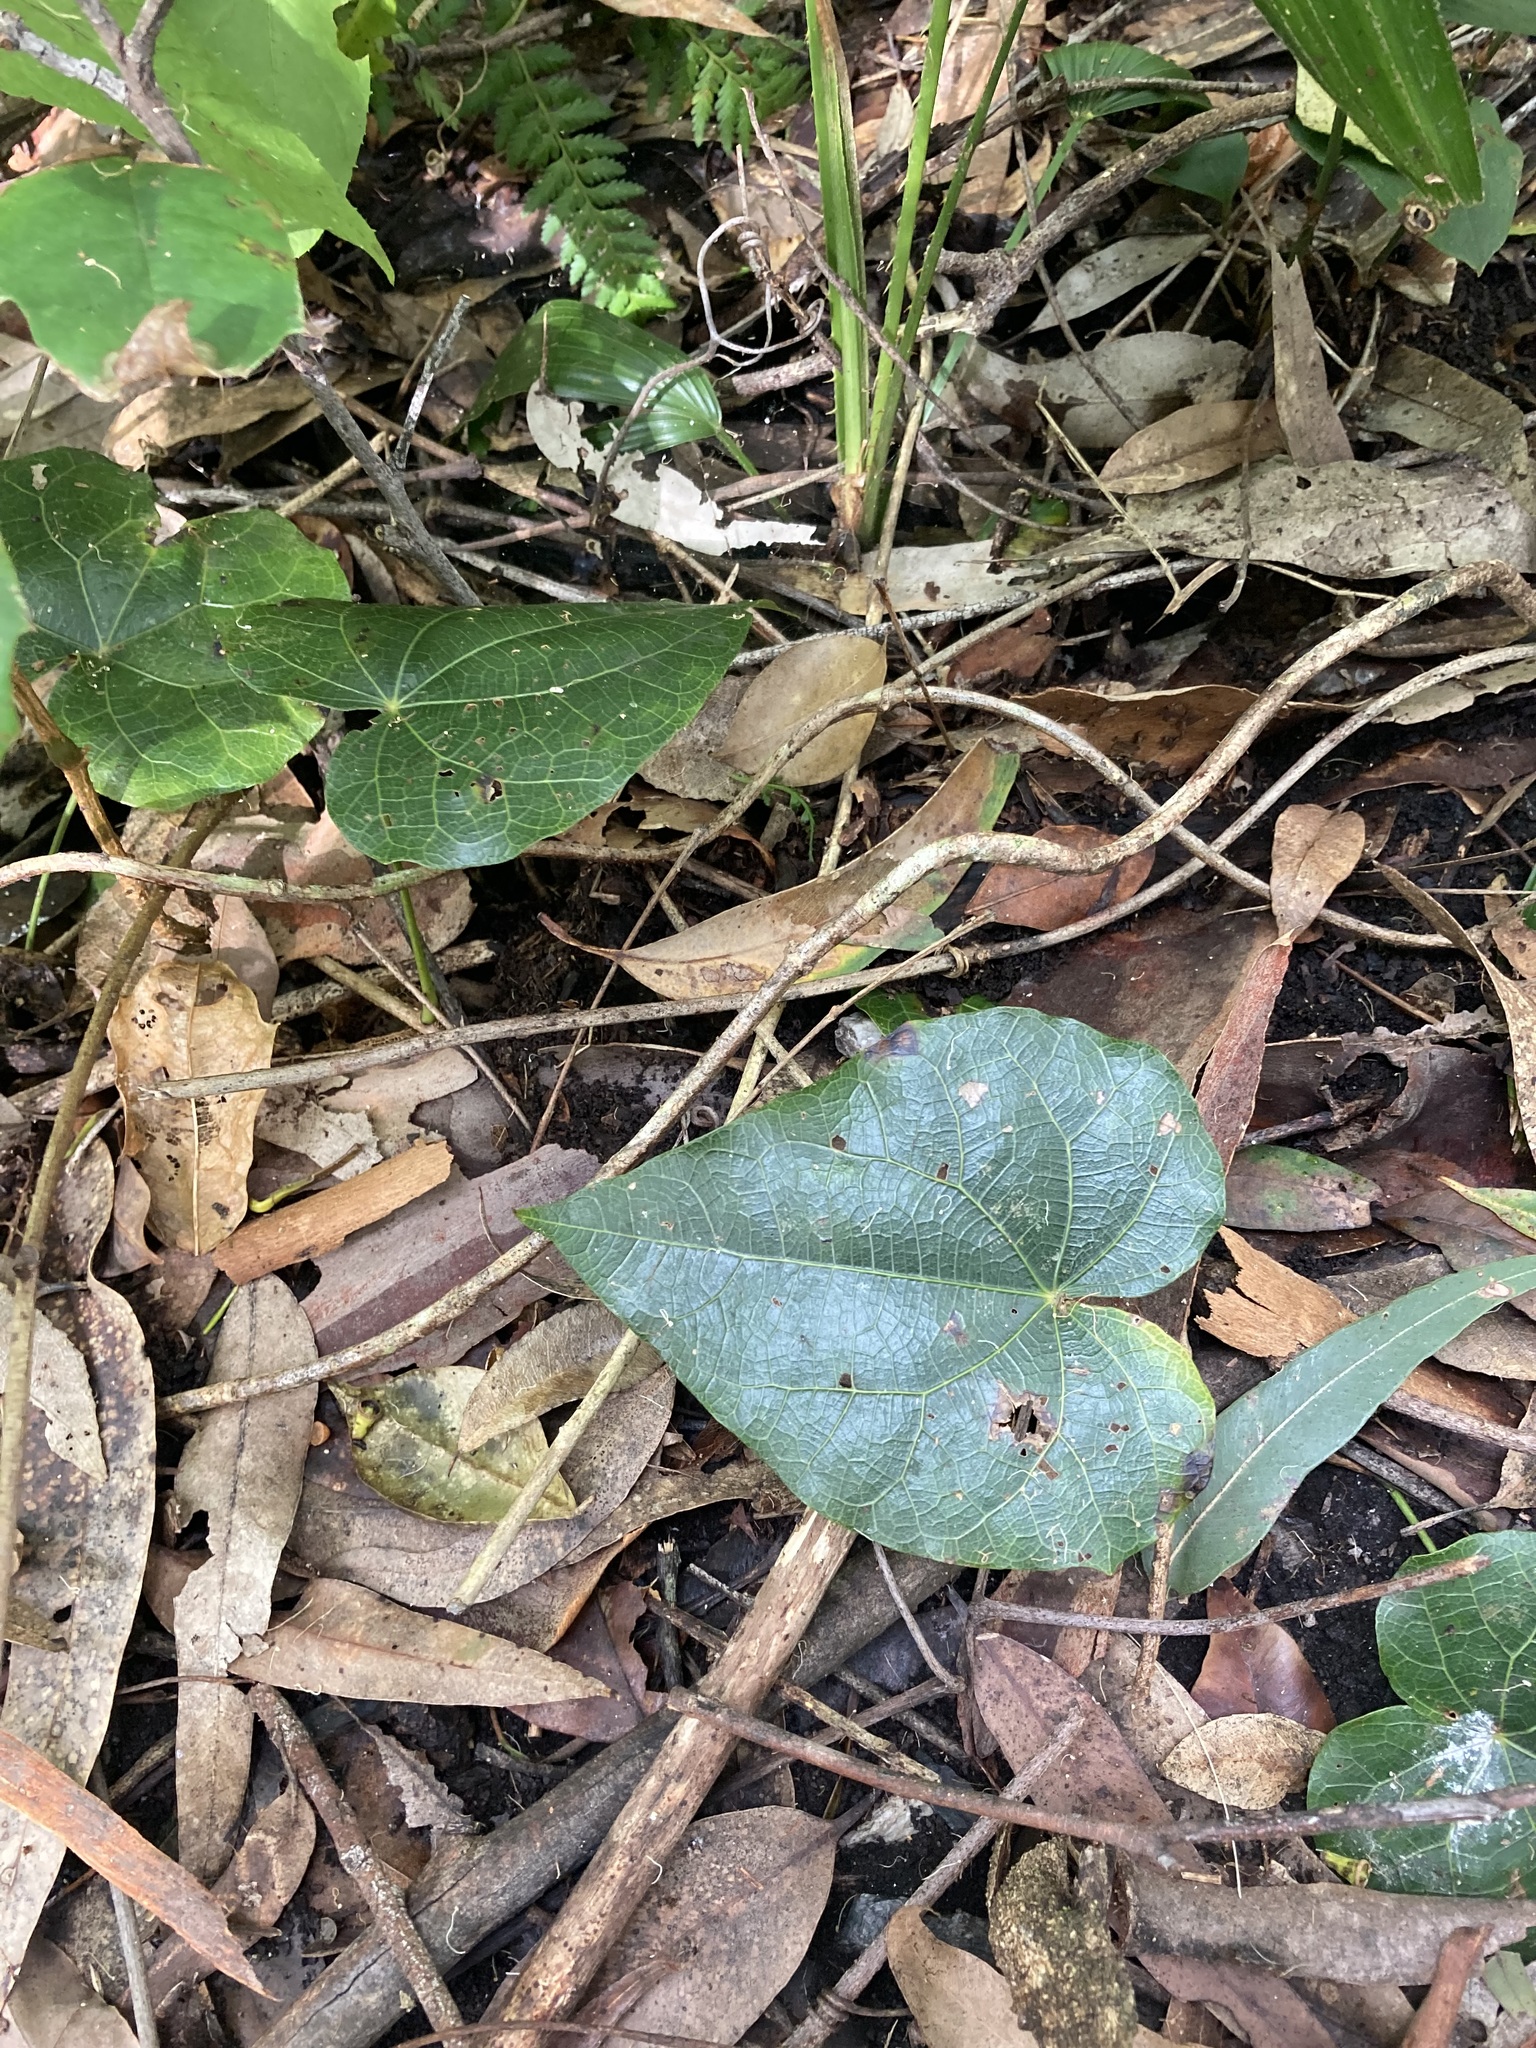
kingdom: Plantae
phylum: Tracheophyta
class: Magnoliopsida
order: Ranunculales
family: Menispermaceae
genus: Sarcopetalum
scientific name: Sarcopetalum harveyanum
